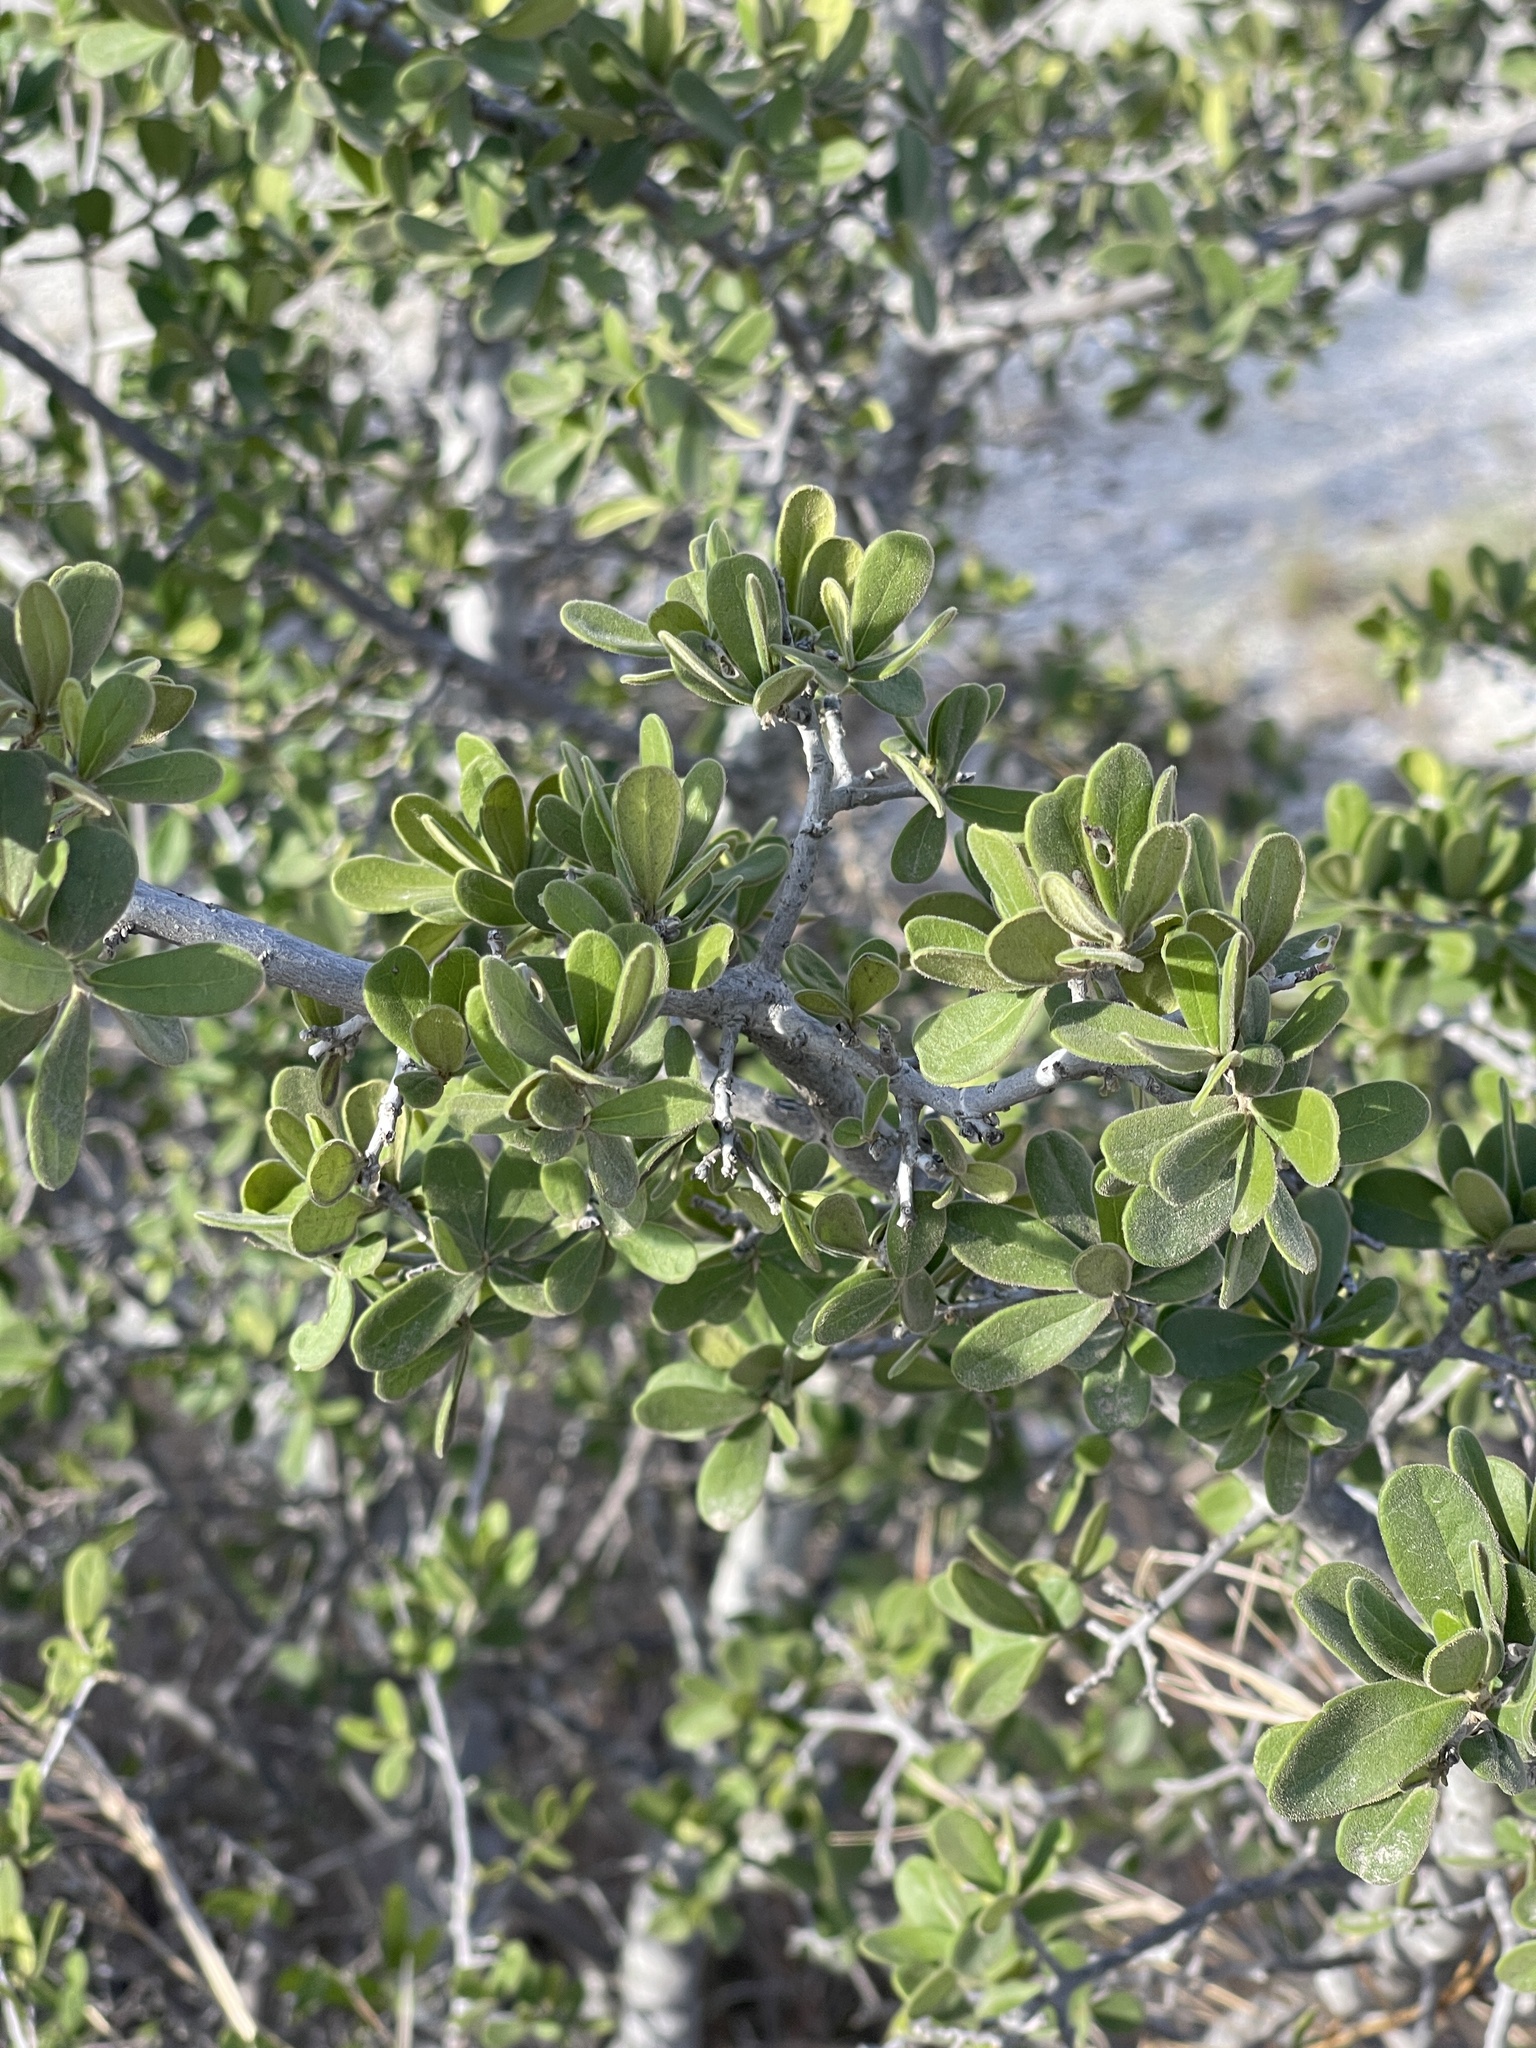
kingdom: Plantae
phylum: Tracheophyta
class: Magnoliopsida
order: Ericales
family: Ebenaceae
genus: Diospyros
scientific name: Diospyros texana
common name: Texas persimmon
